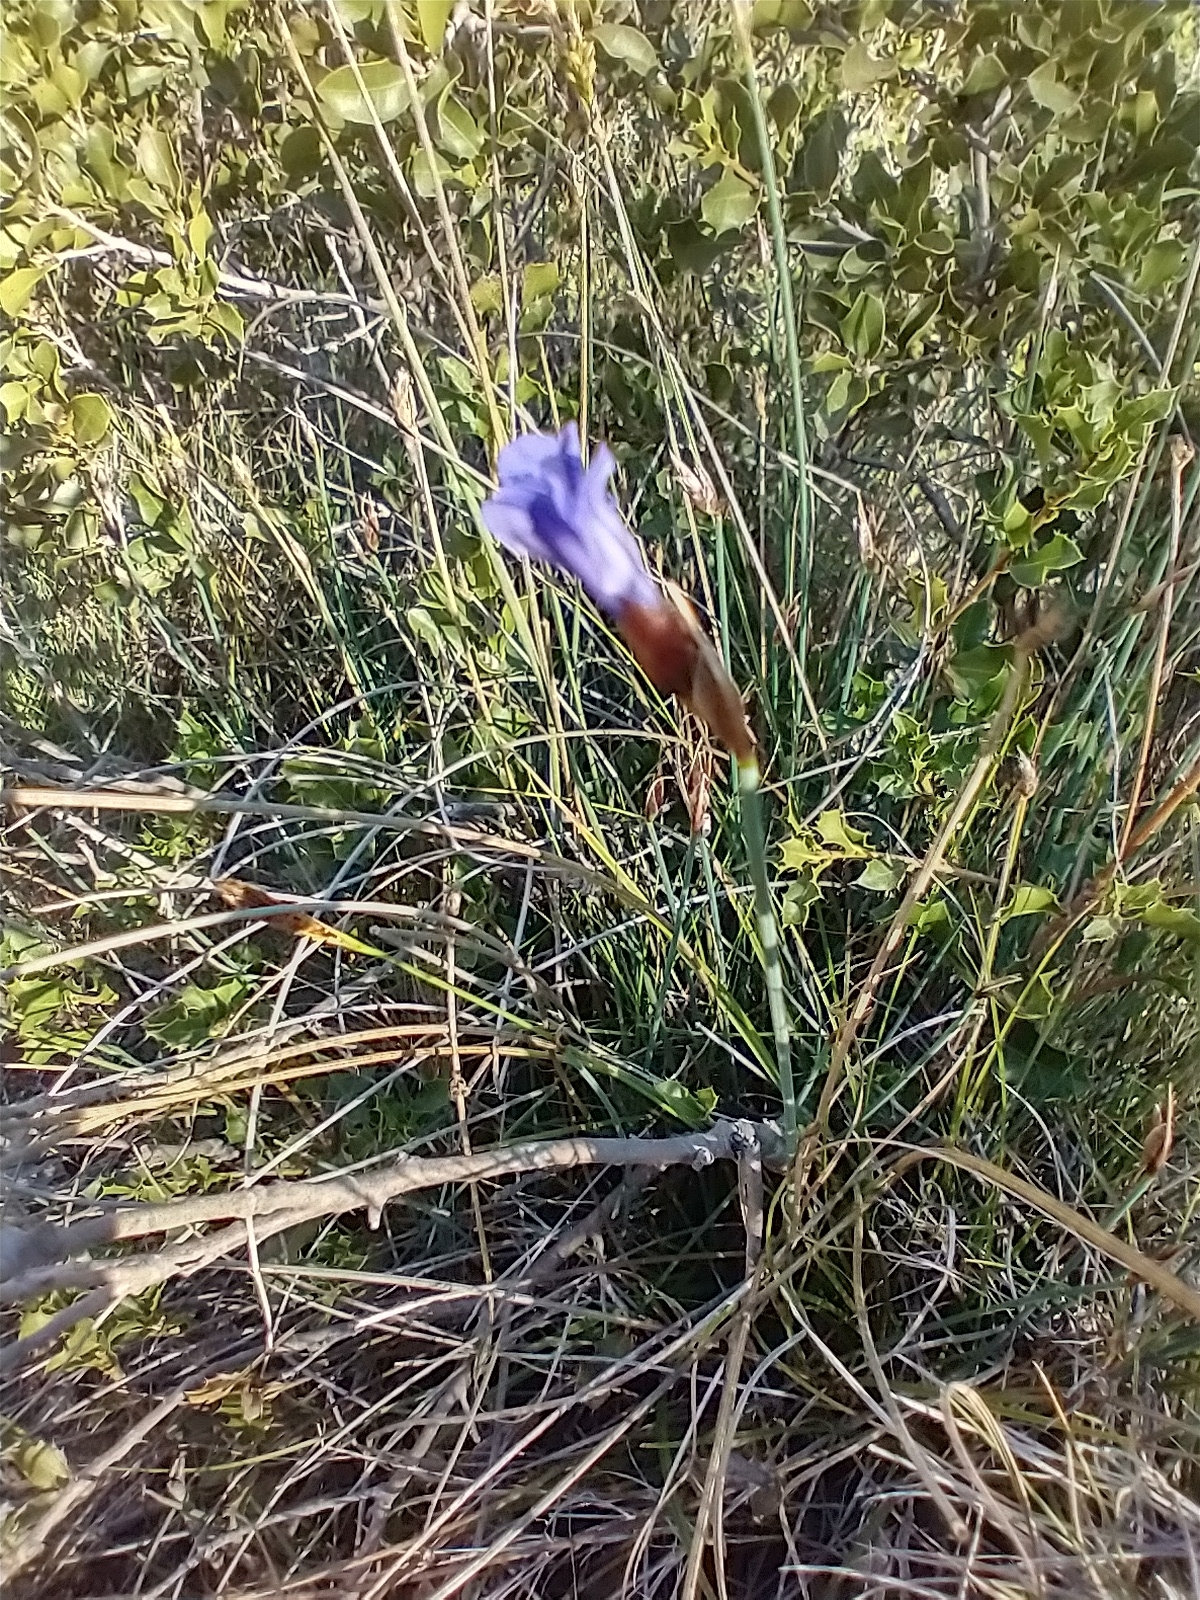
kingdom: Plantae
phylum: Tracheophyta
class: Liliopsida
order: Asparagales
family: Asparagaceae
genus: Aphyllanthes
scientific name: Aphyllanthes monspeliensis
